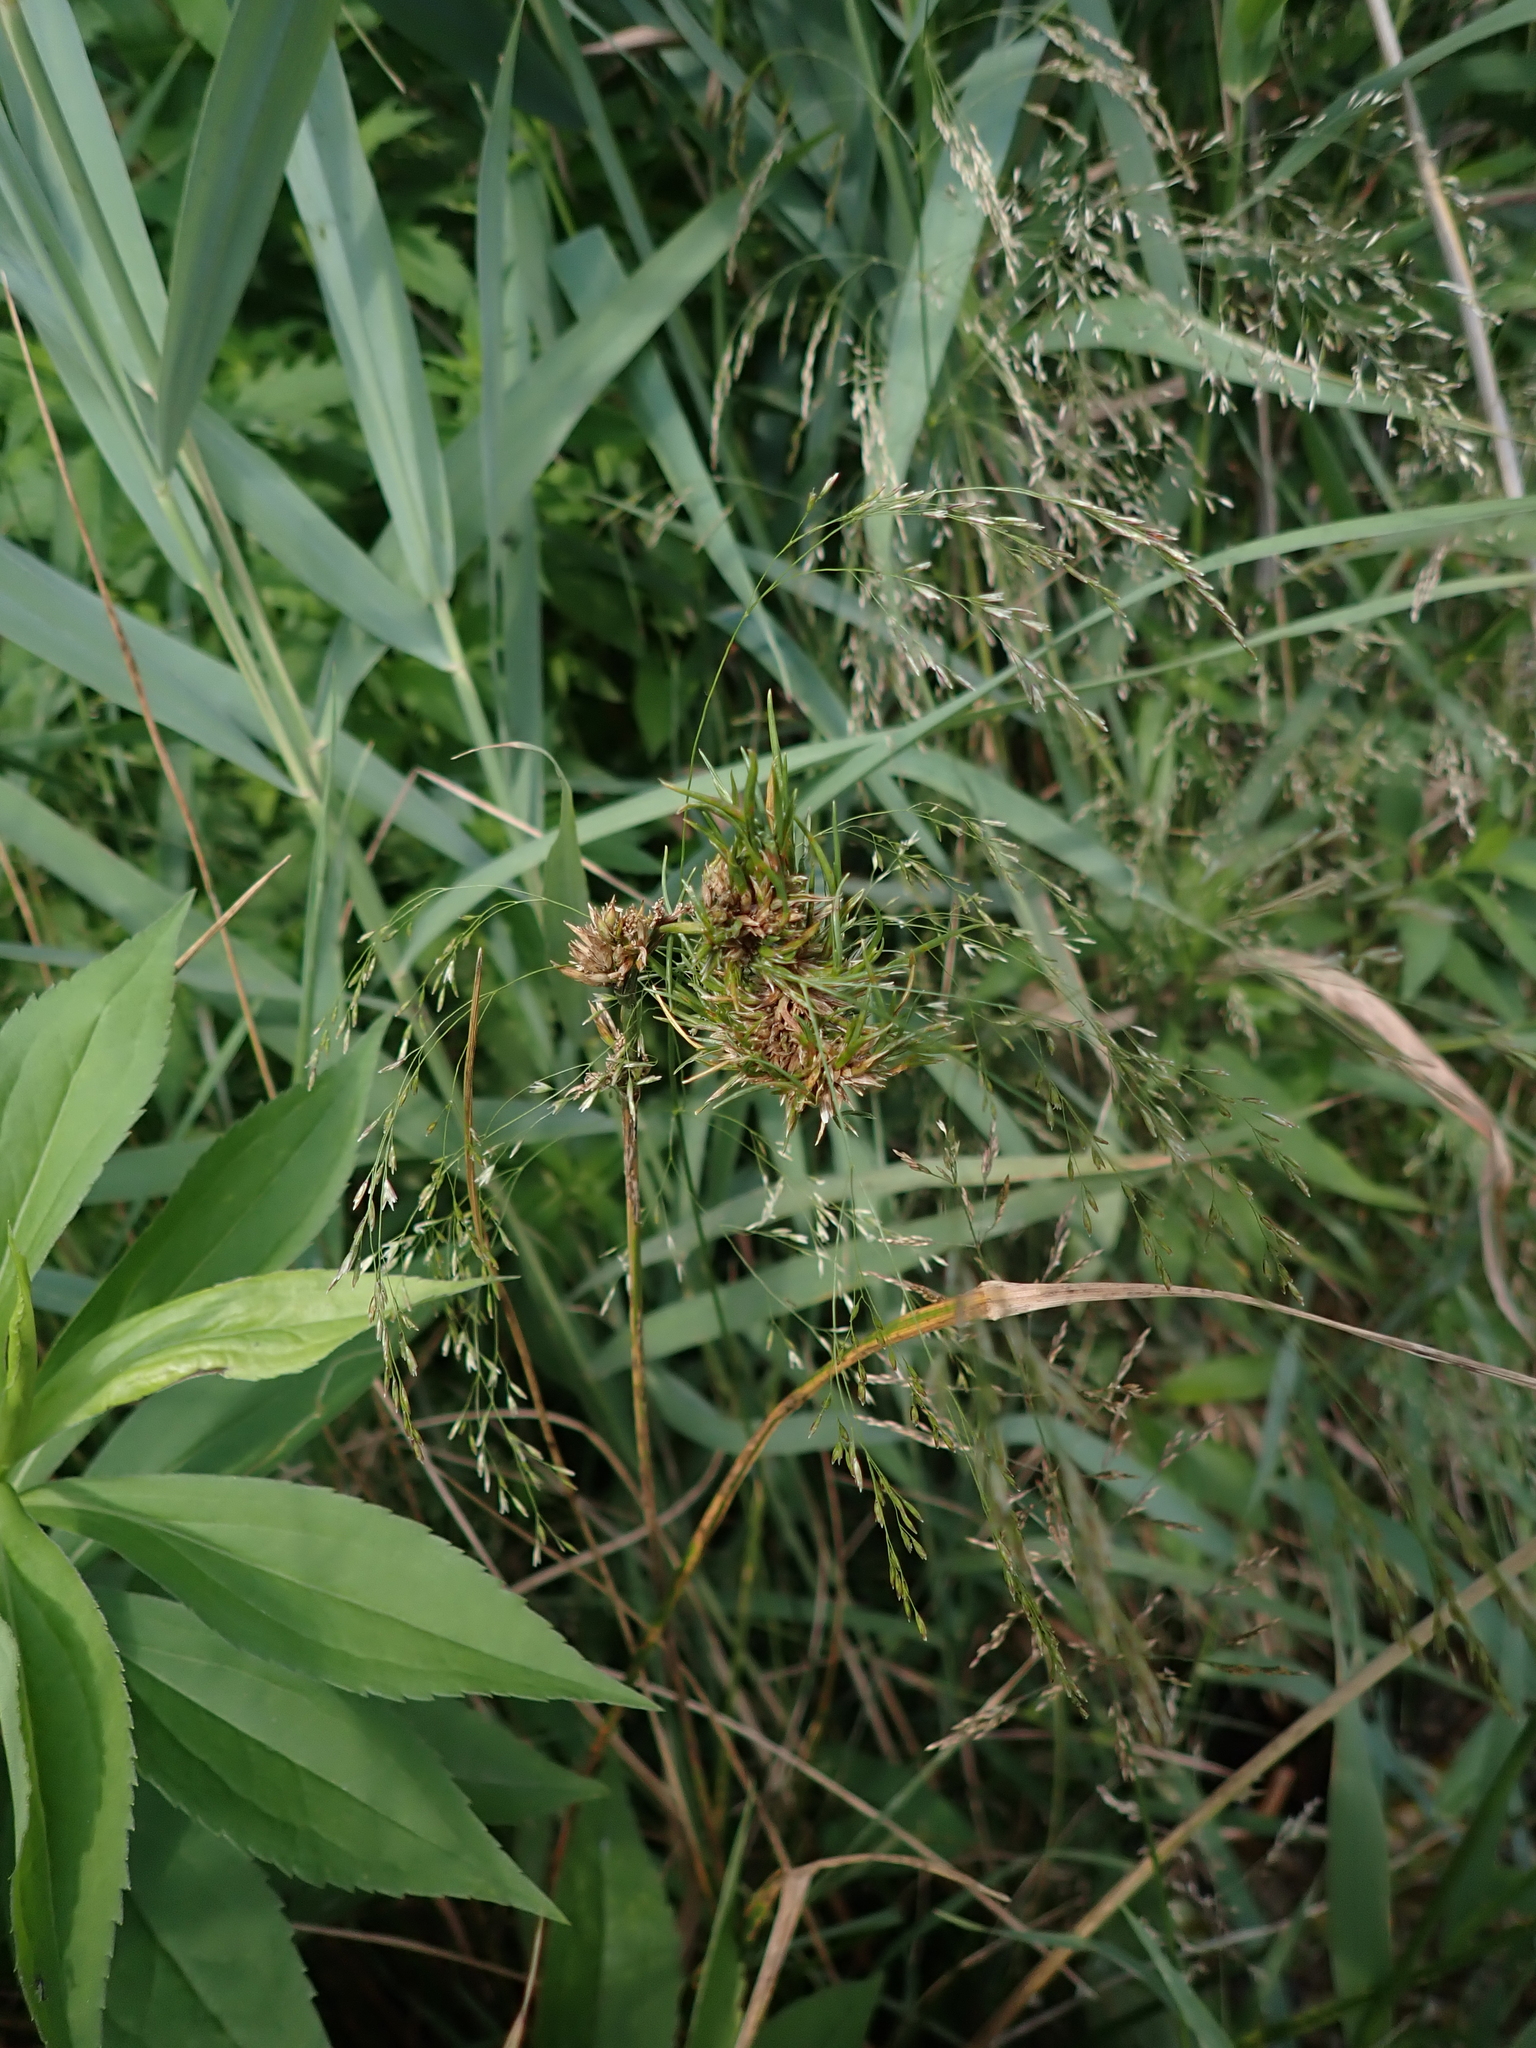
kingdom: Plantae
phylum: Tracheophyta
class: Liliopsida
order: Poales
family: Juncaceae
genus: Juncus
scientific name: Juncus effusus
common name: Soft rush
